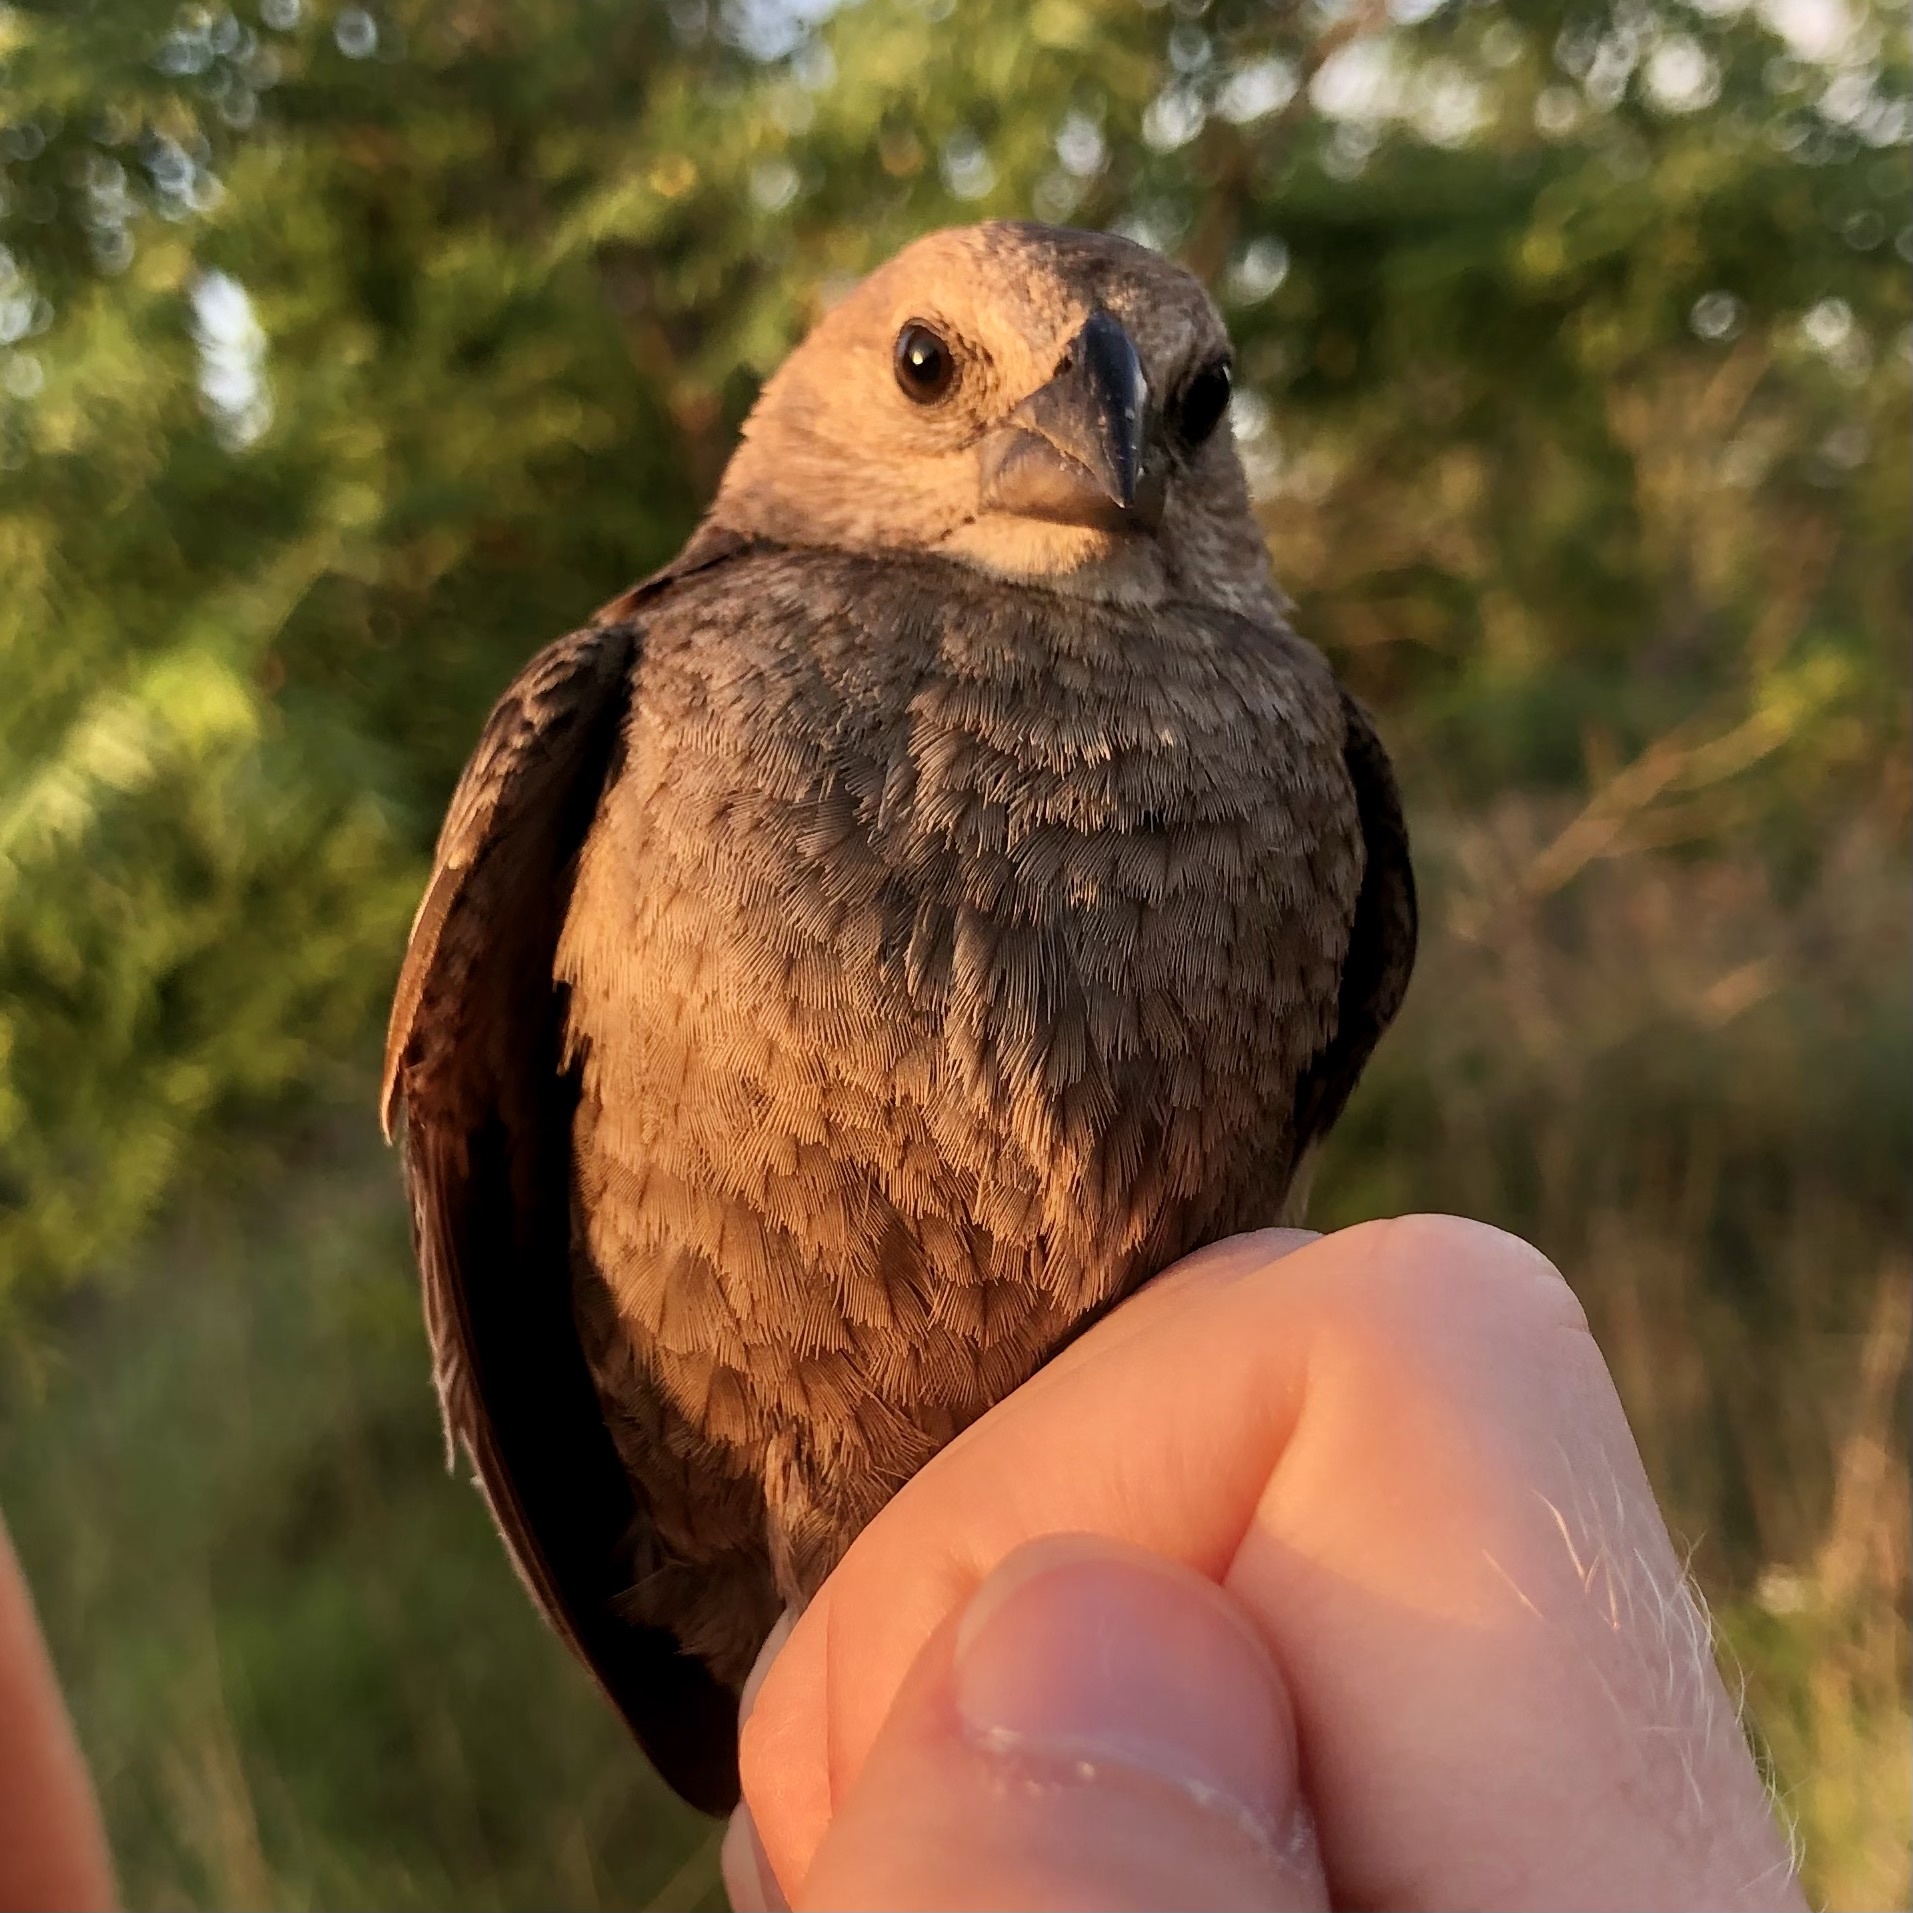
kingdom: Animalia
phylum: Chordata
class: Aves
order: Passeriformes
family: Icteridae
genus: Molothrus
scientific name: Molothrus ater
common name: Brown-headed cowbird
